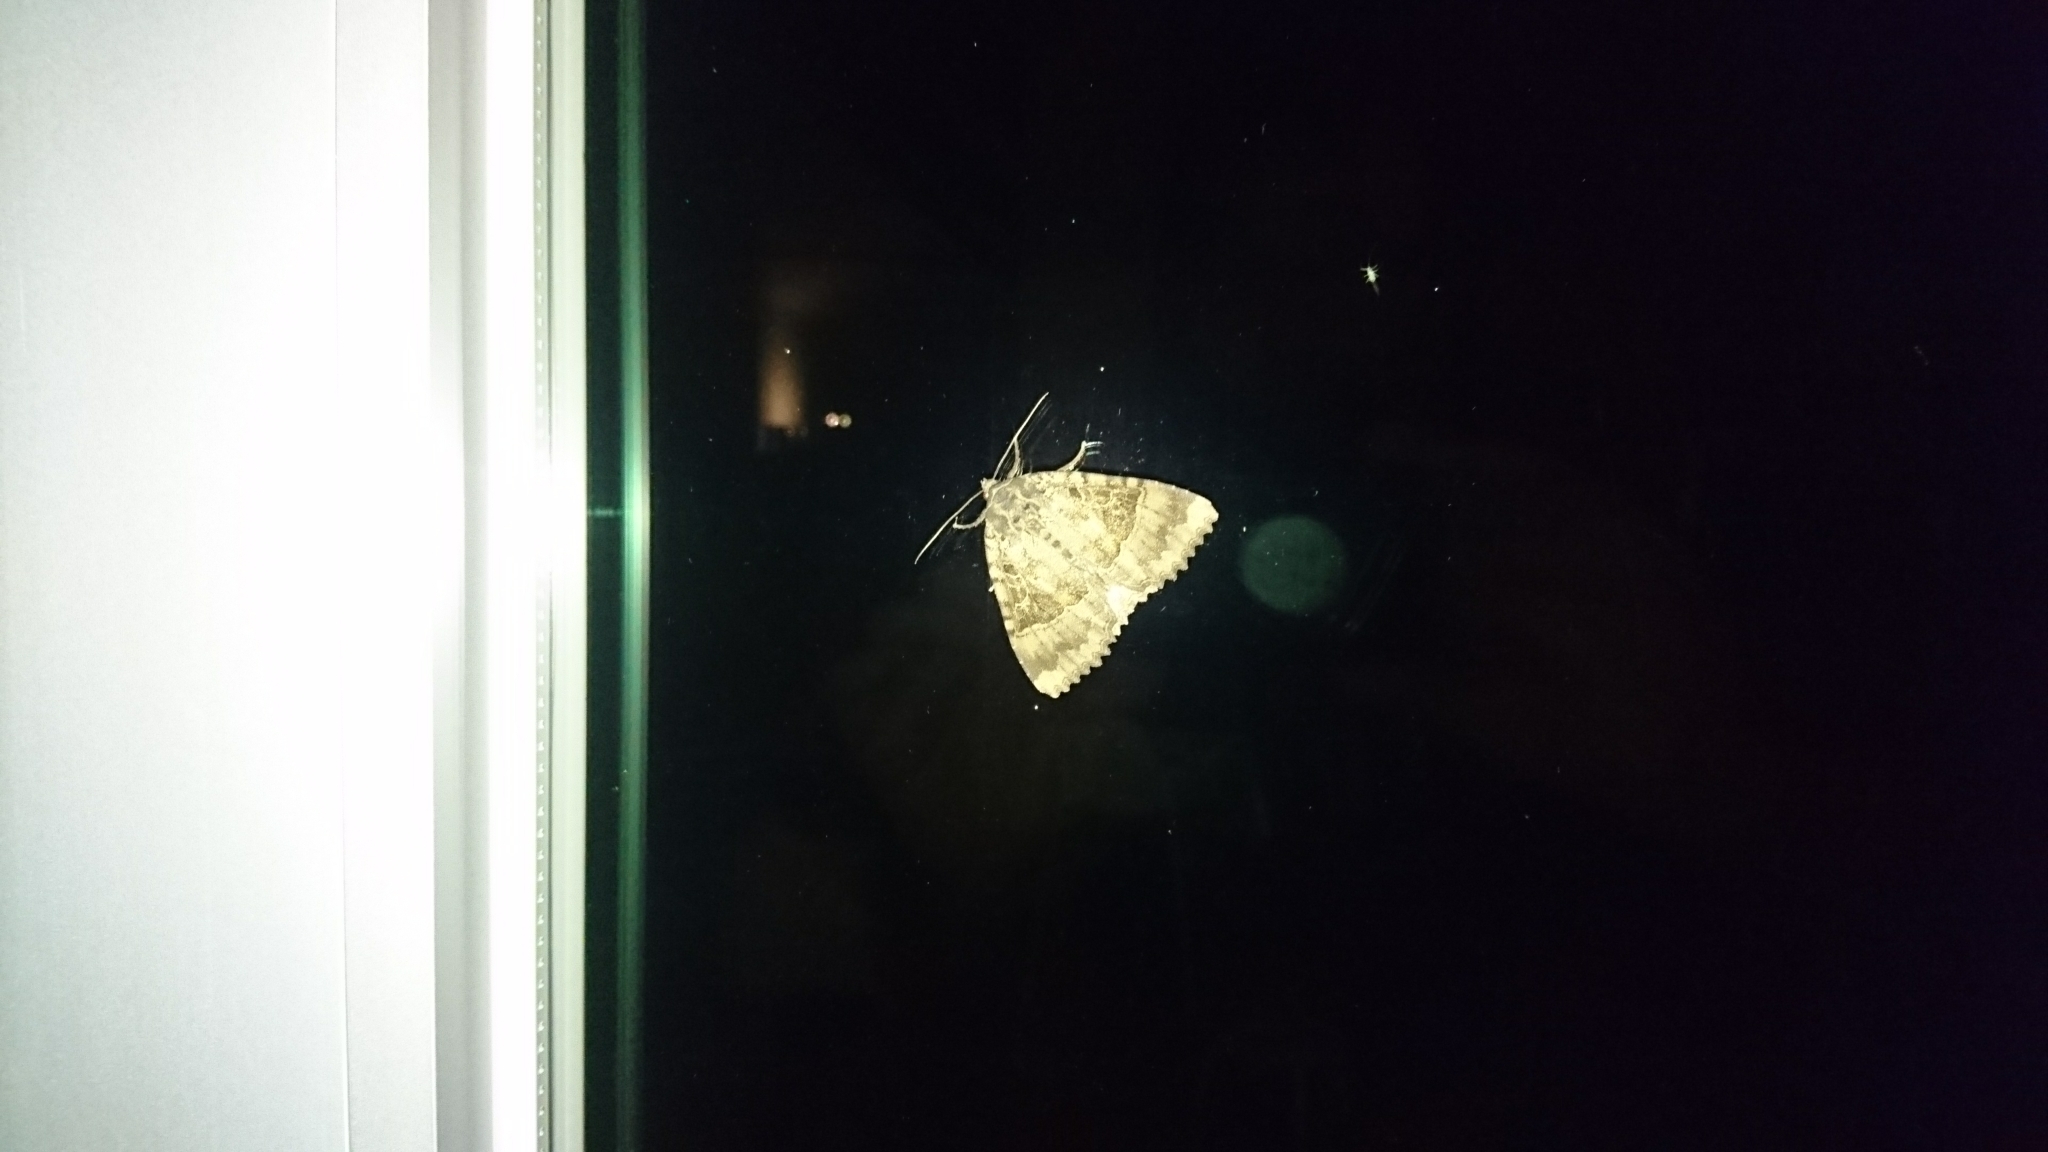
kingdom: Animalia
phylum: Arthropoda
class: Insecta
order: Lepidoptera
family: Noctuidae
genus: Mormo
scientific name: Mormo maura
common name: Old lady
